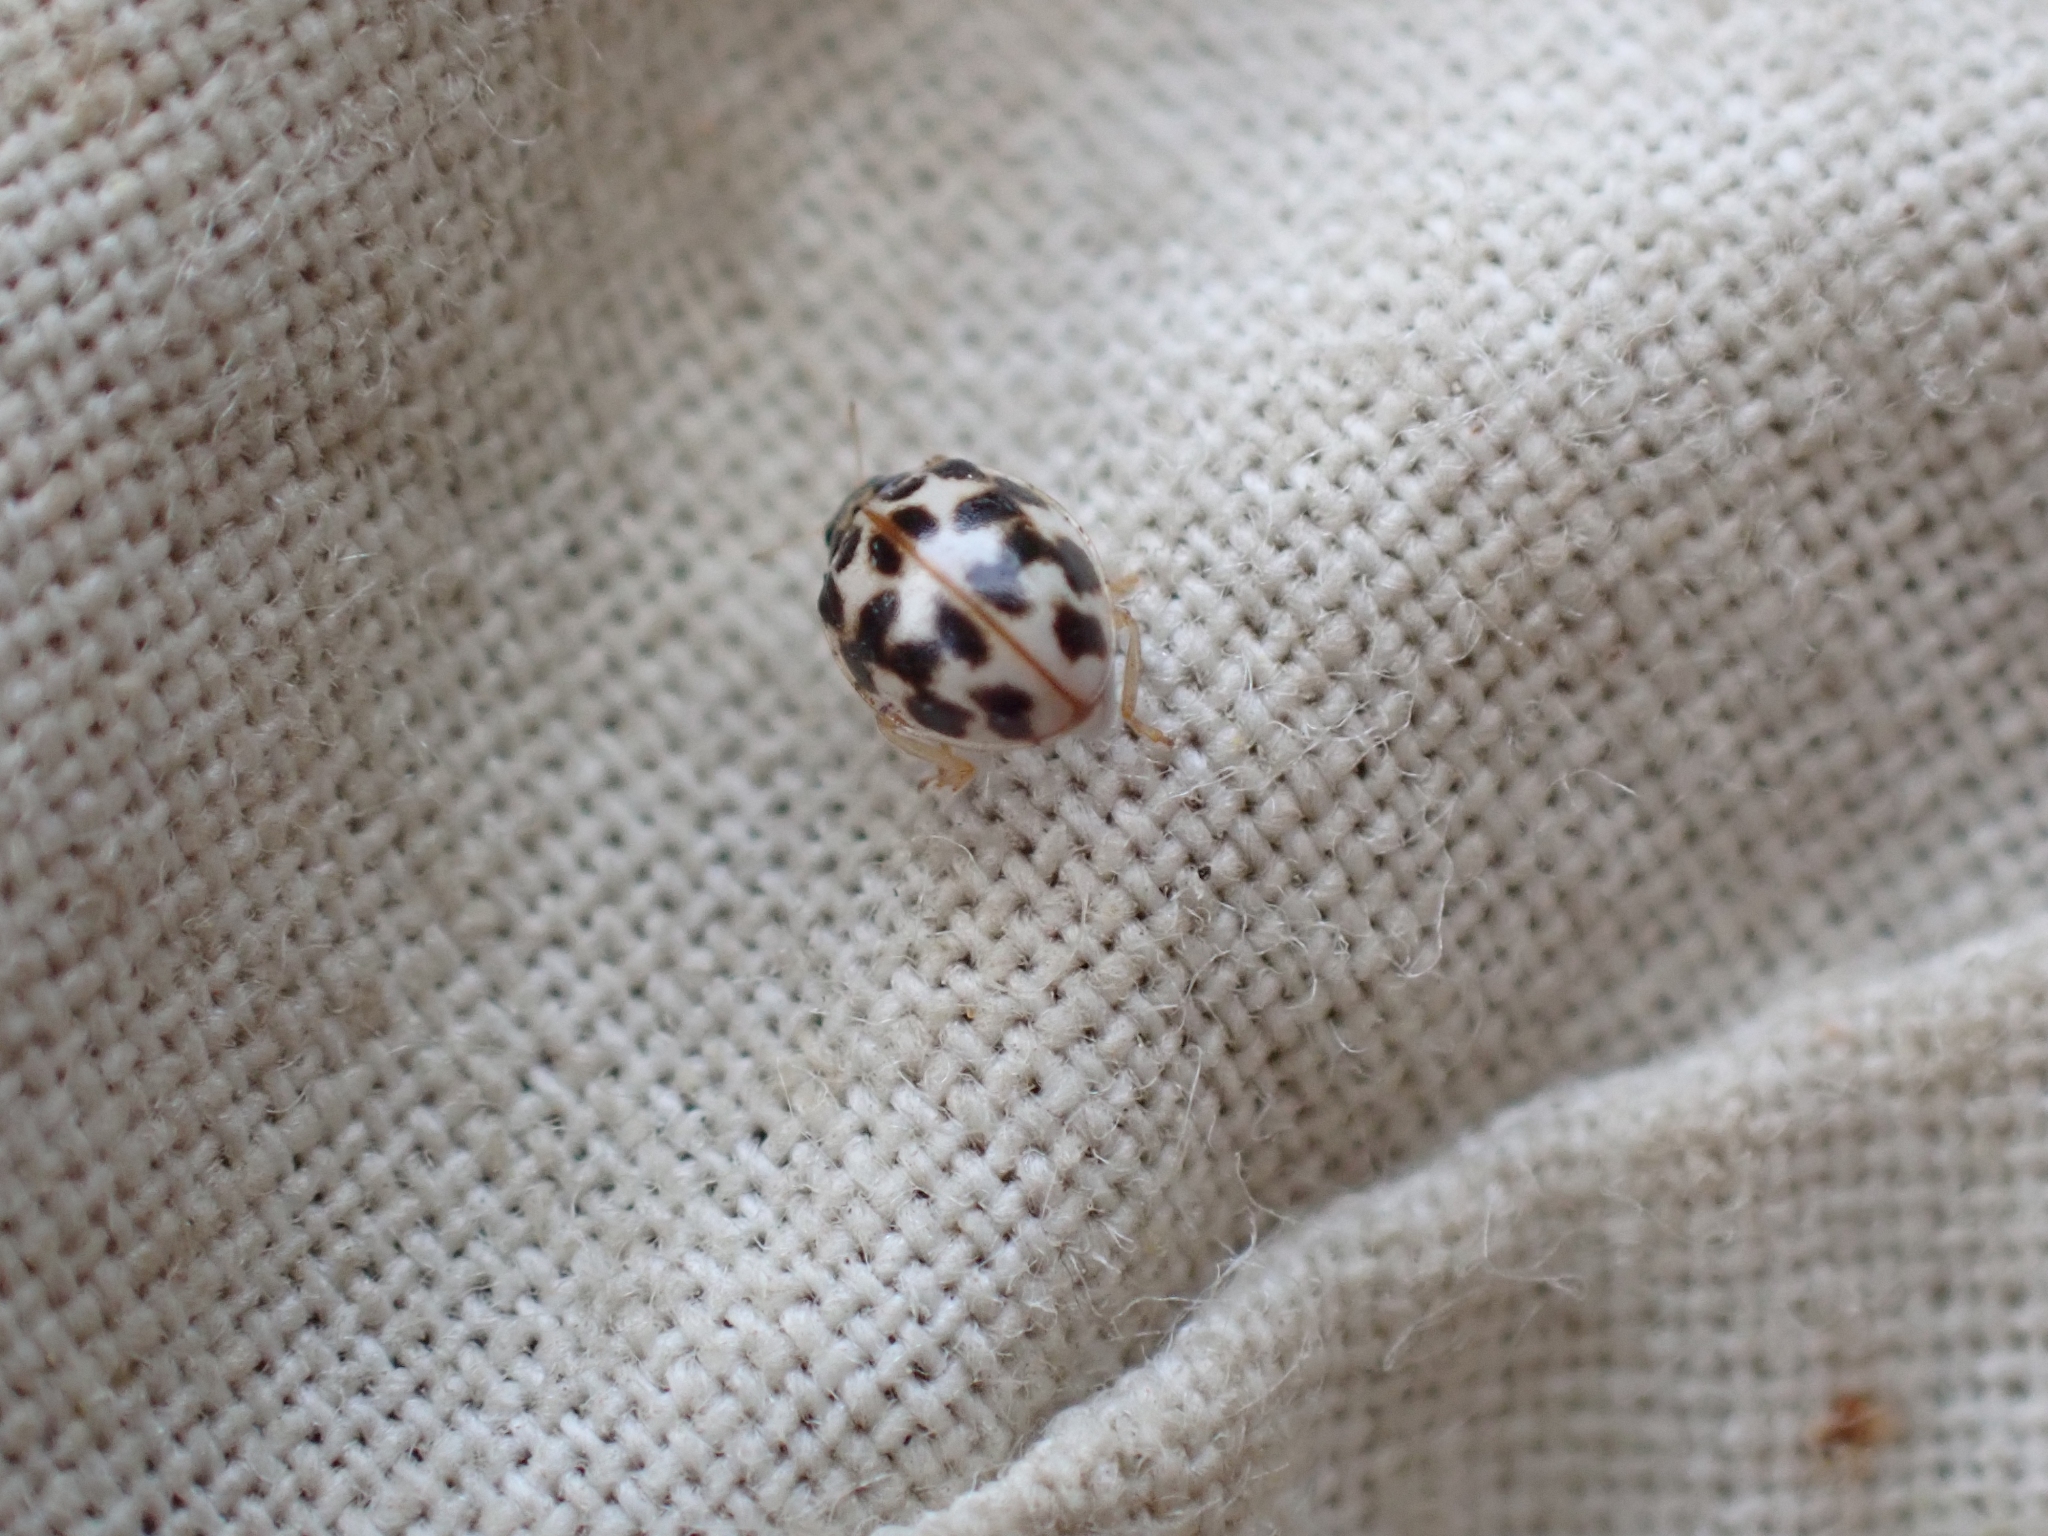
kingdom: Animalia
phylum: Arthropoda
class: Insecta
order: Coleoptera
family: Coccinellidae
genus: Psyllobora
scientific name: Psyllobora vigintimaculata
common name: Ladybird beetle
